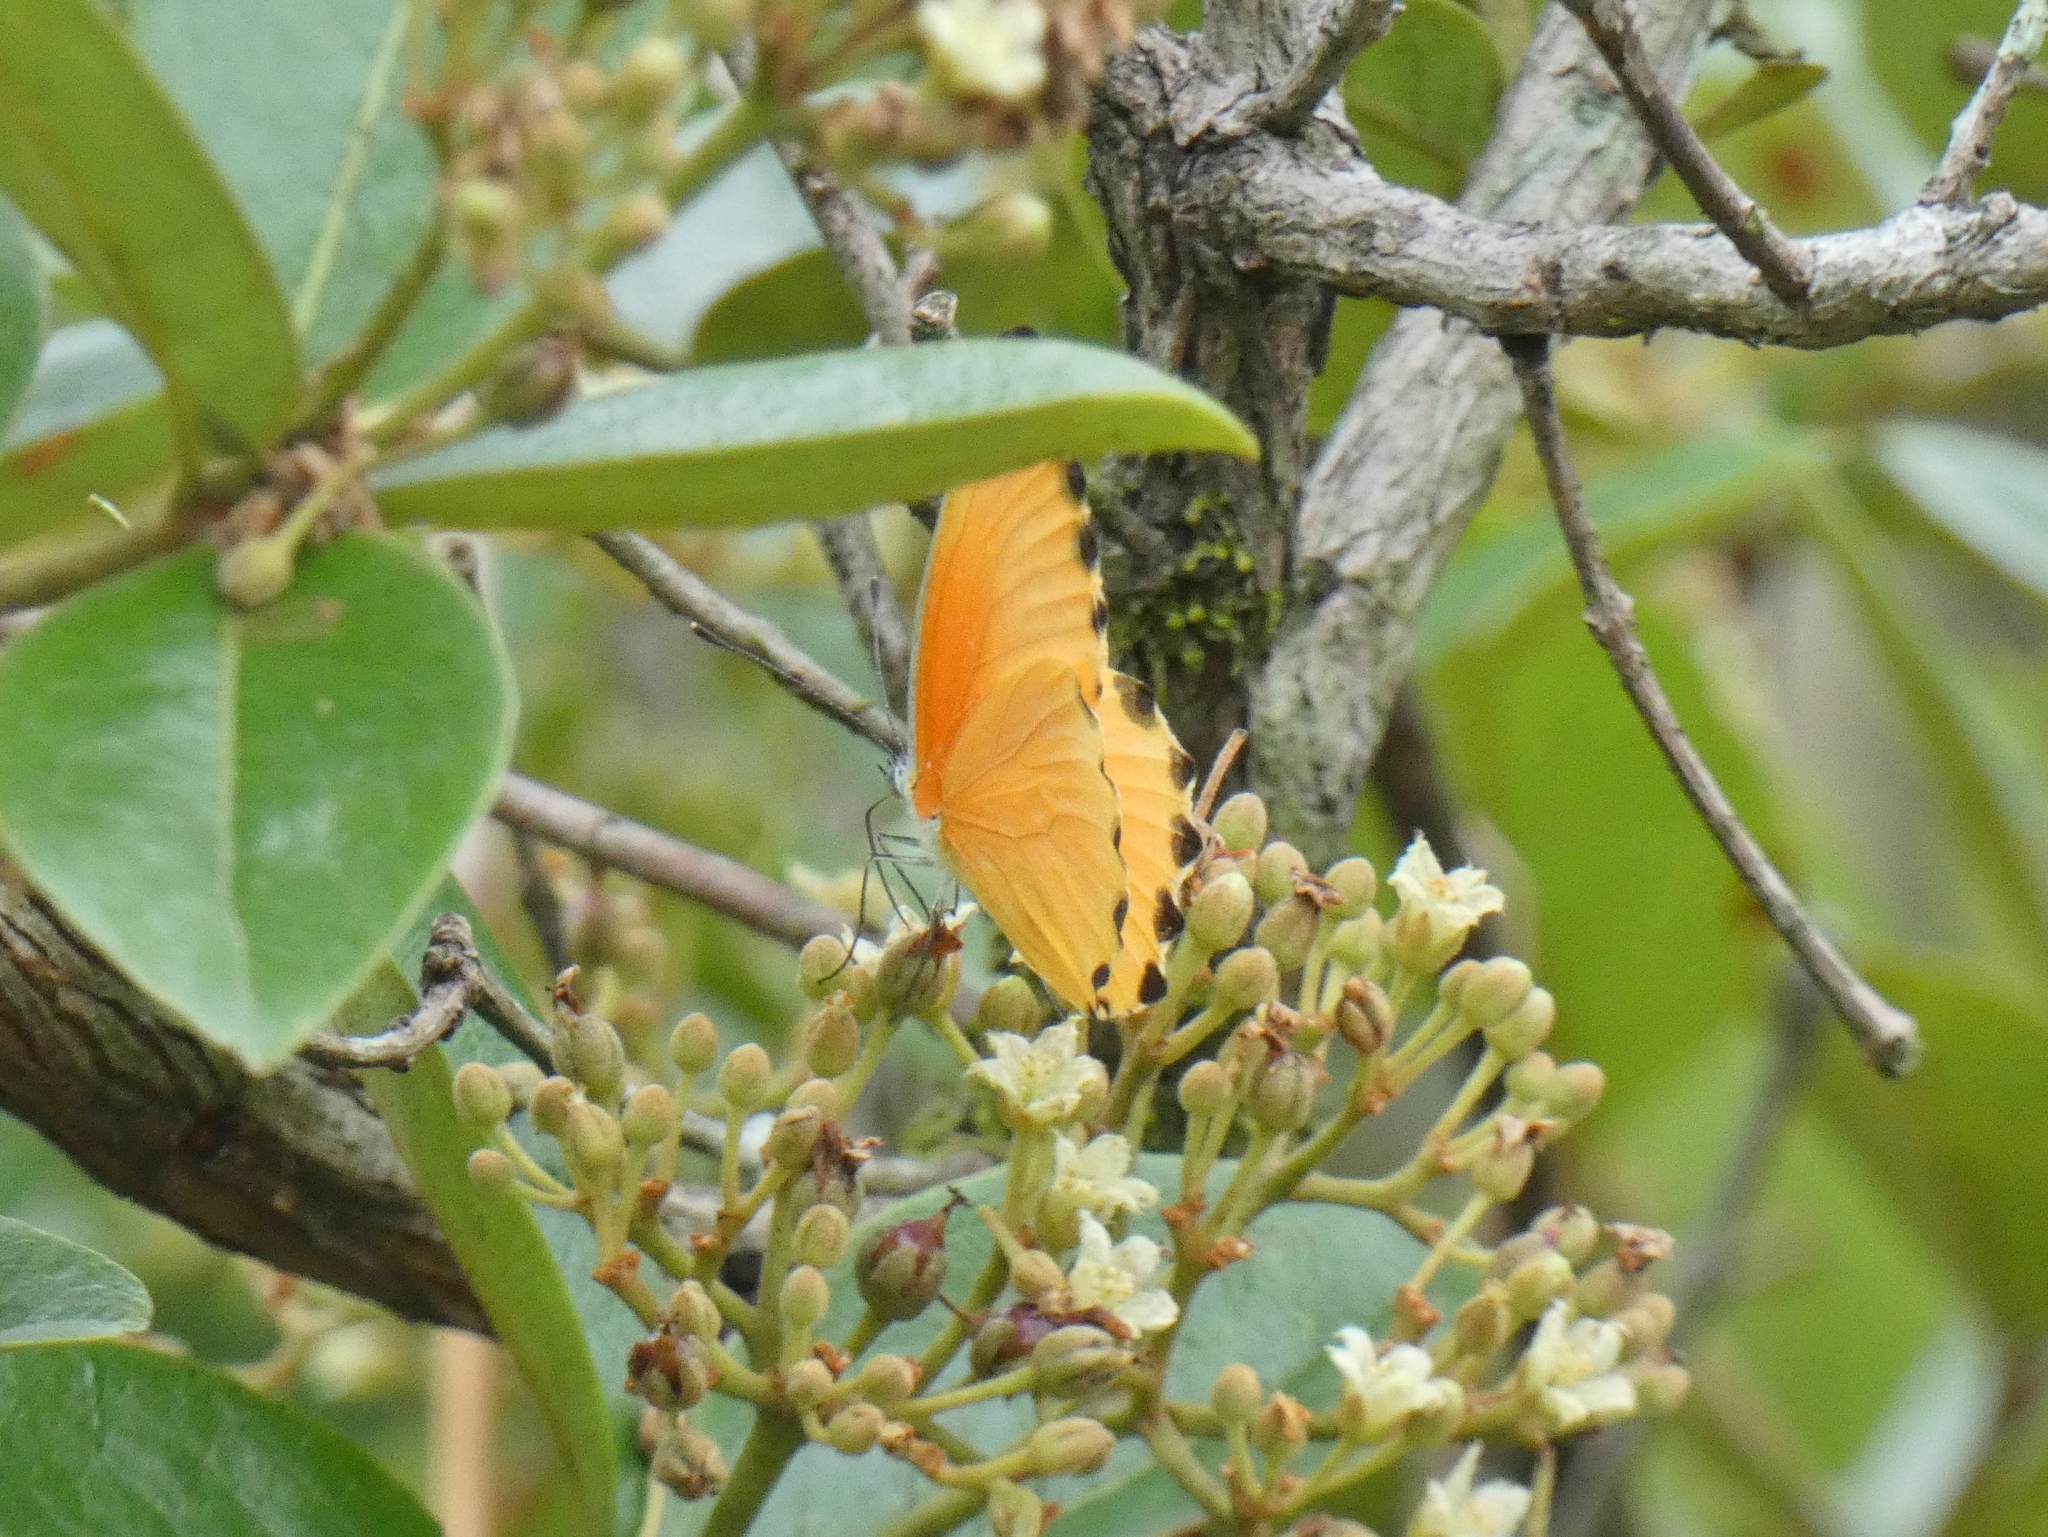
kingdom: Animalia
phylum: Arthropoda
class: Insecta
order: Lepidoptera
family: Pieridae
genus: Mylothris
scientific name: Mylothris agathina
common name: Eastern dotted border
